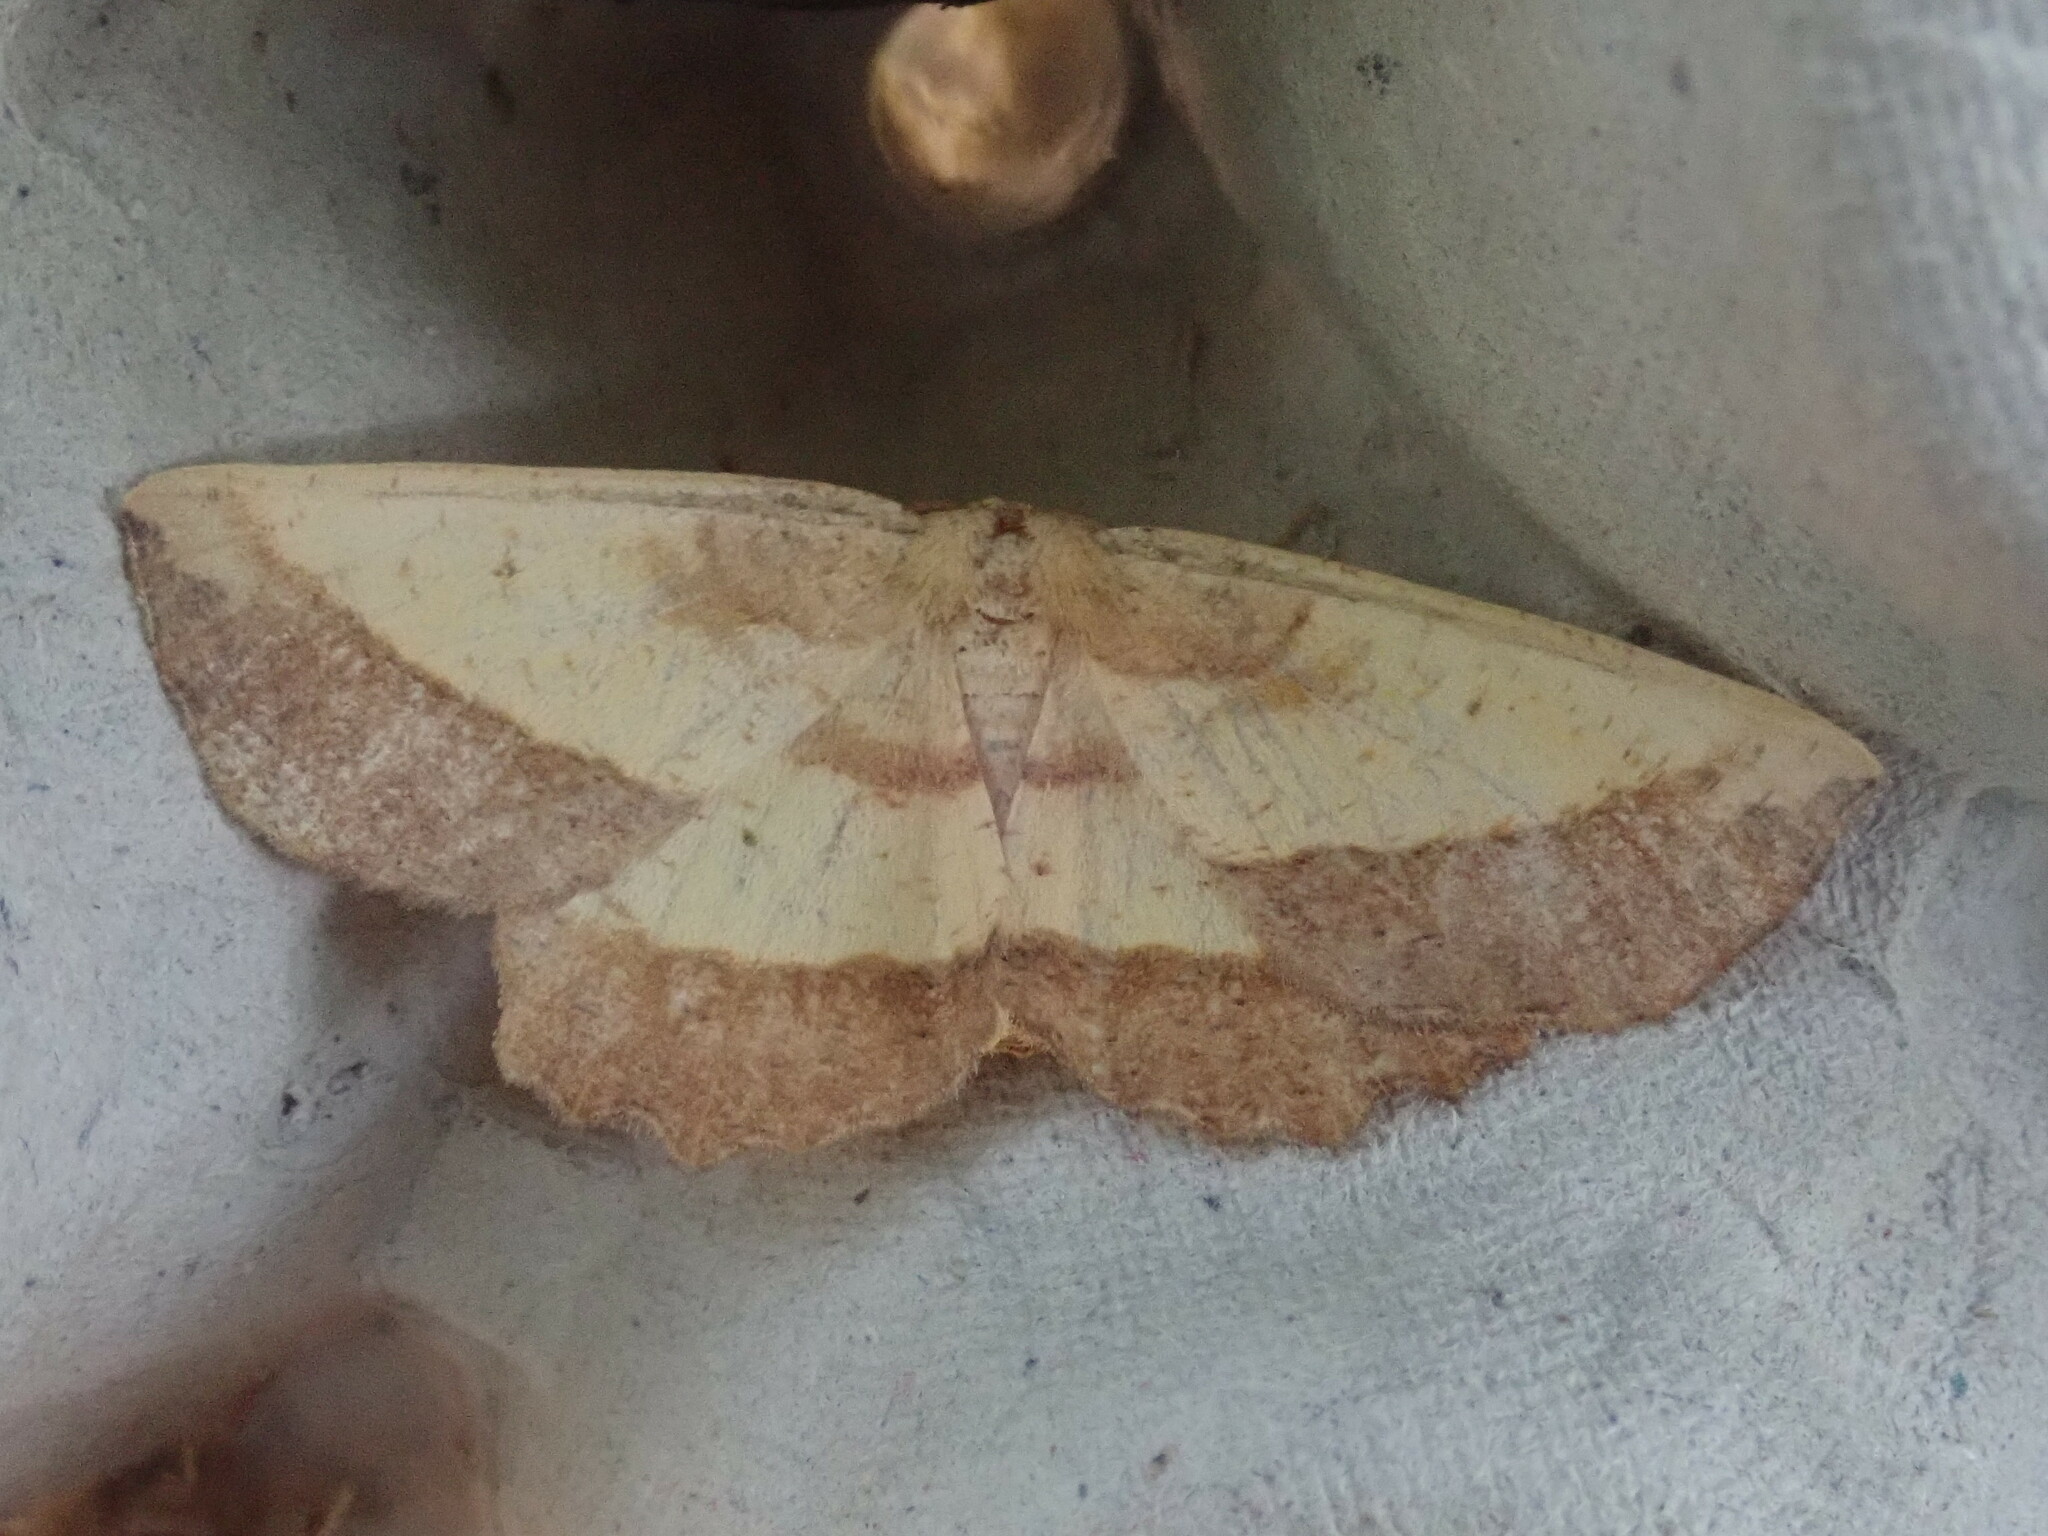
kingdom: Animalia
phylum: Arthropoda
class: Insecta
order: Lepidoptera
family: Geometridae
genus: Euchlaena
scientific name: Euchlaena serrata
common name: Saw wing
